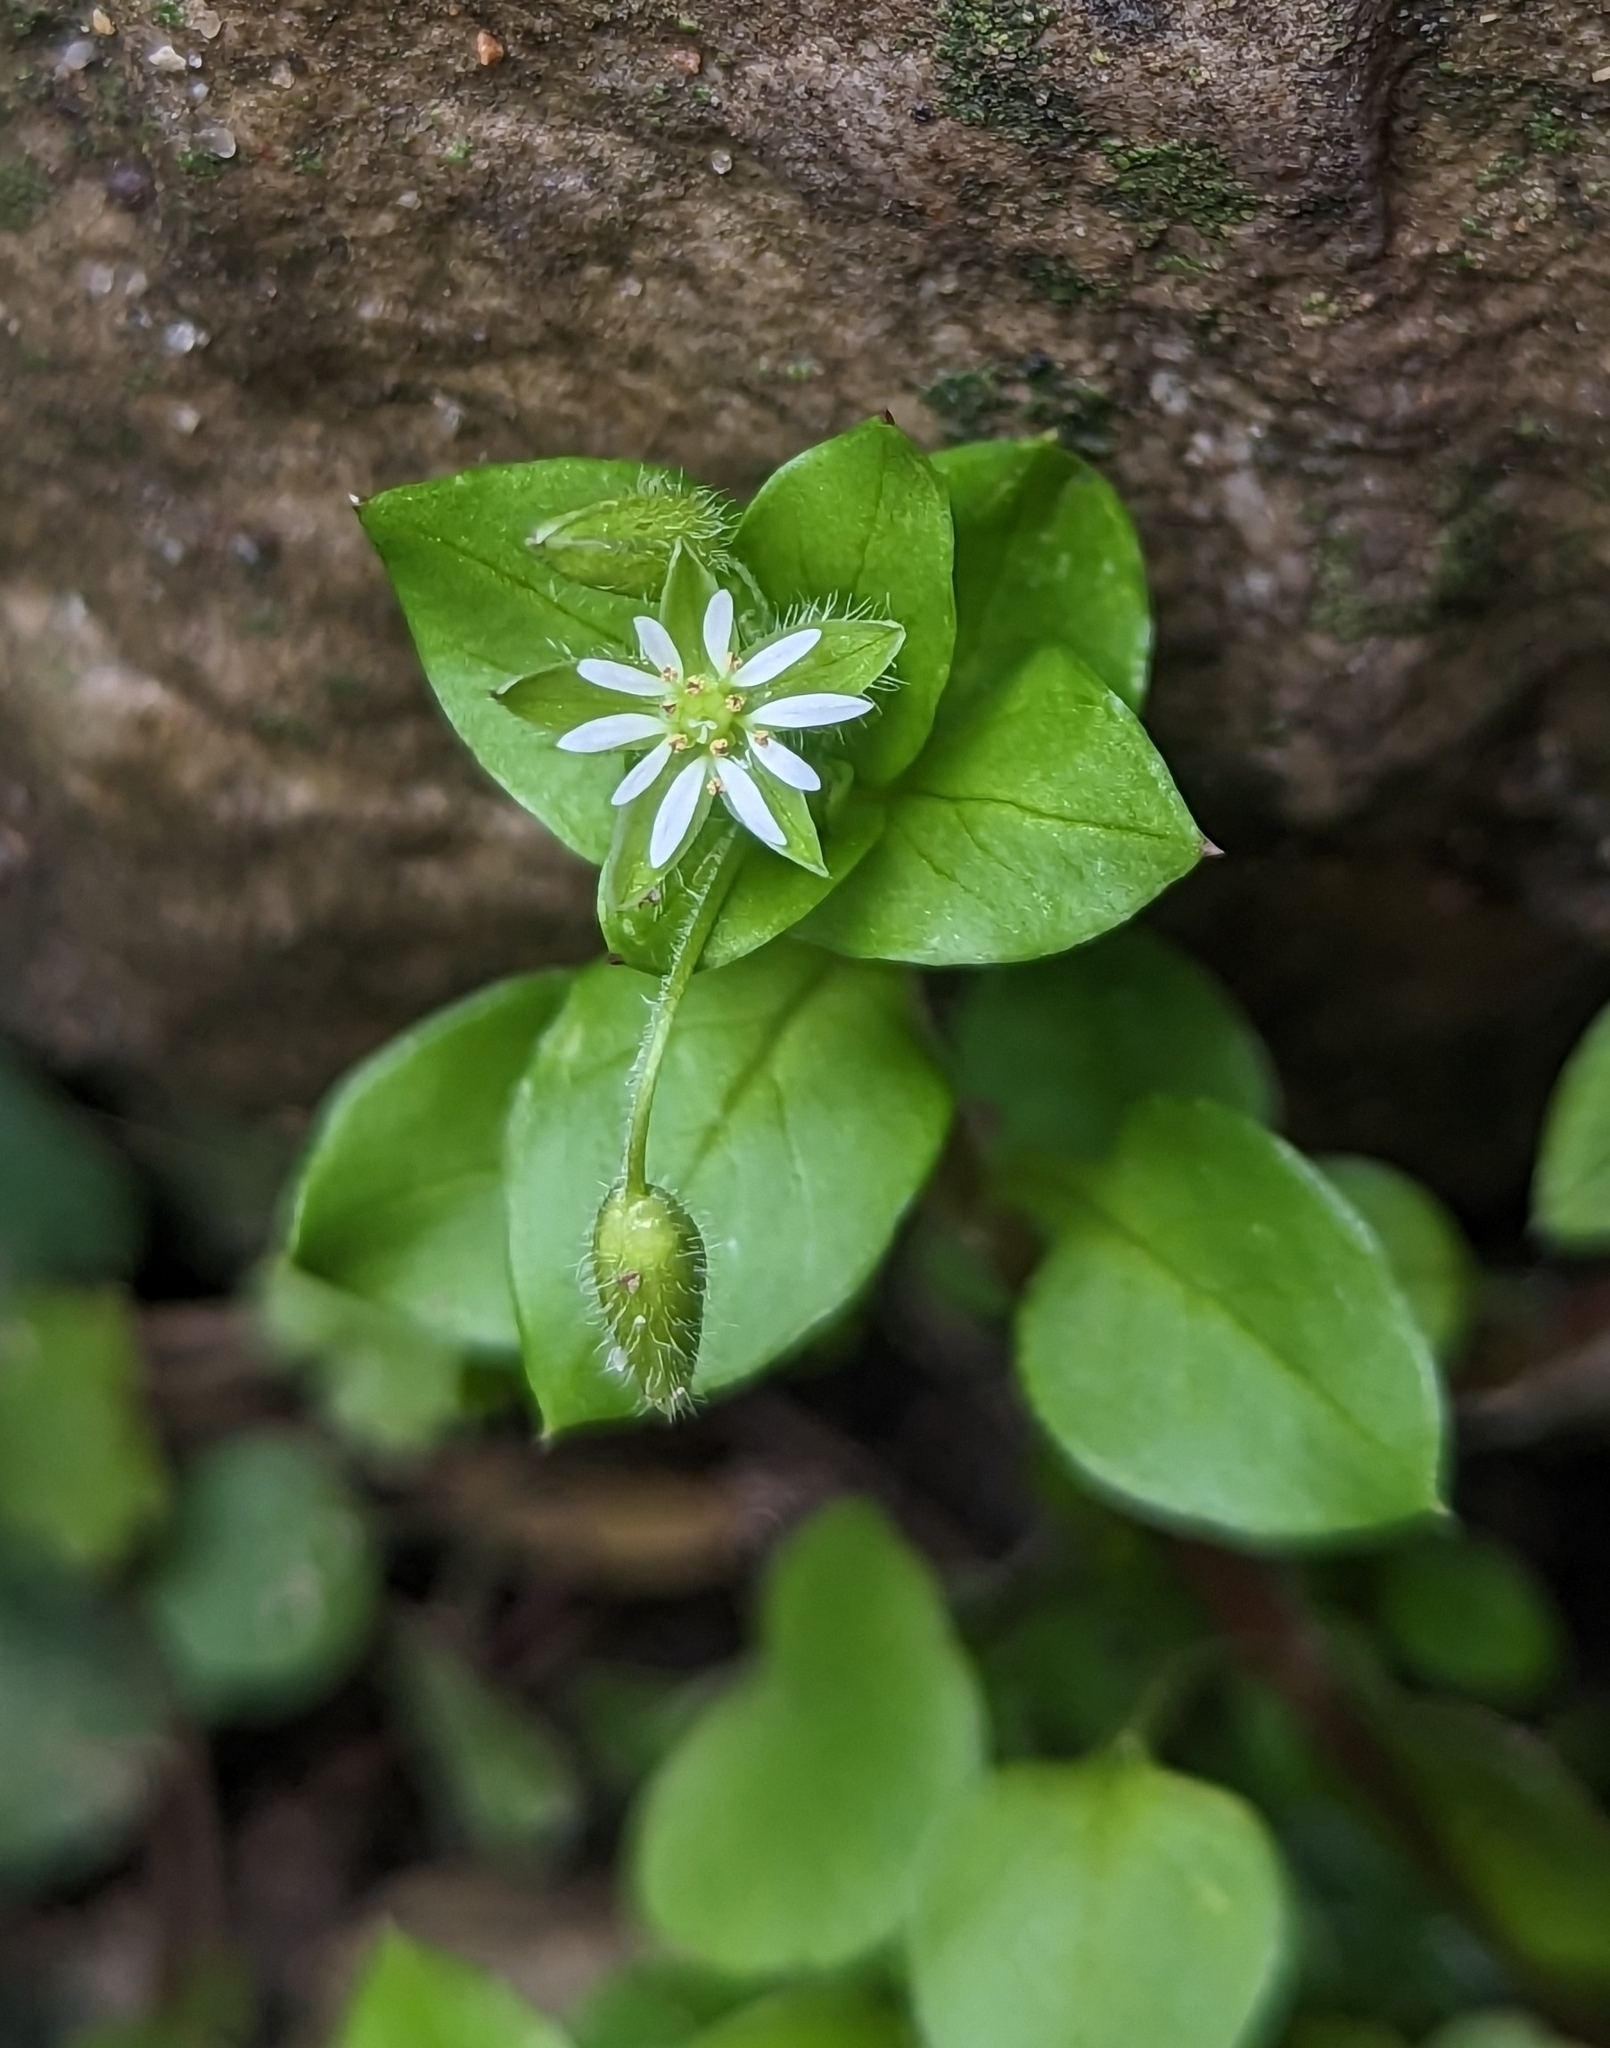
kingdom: Plantae
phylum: Tracheophyta
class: Magnoliopsida
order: Caryophyllales
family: Caryophyllaceae
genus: Stellaria
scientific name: Stellaria neglecta
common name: Greater chickweed
